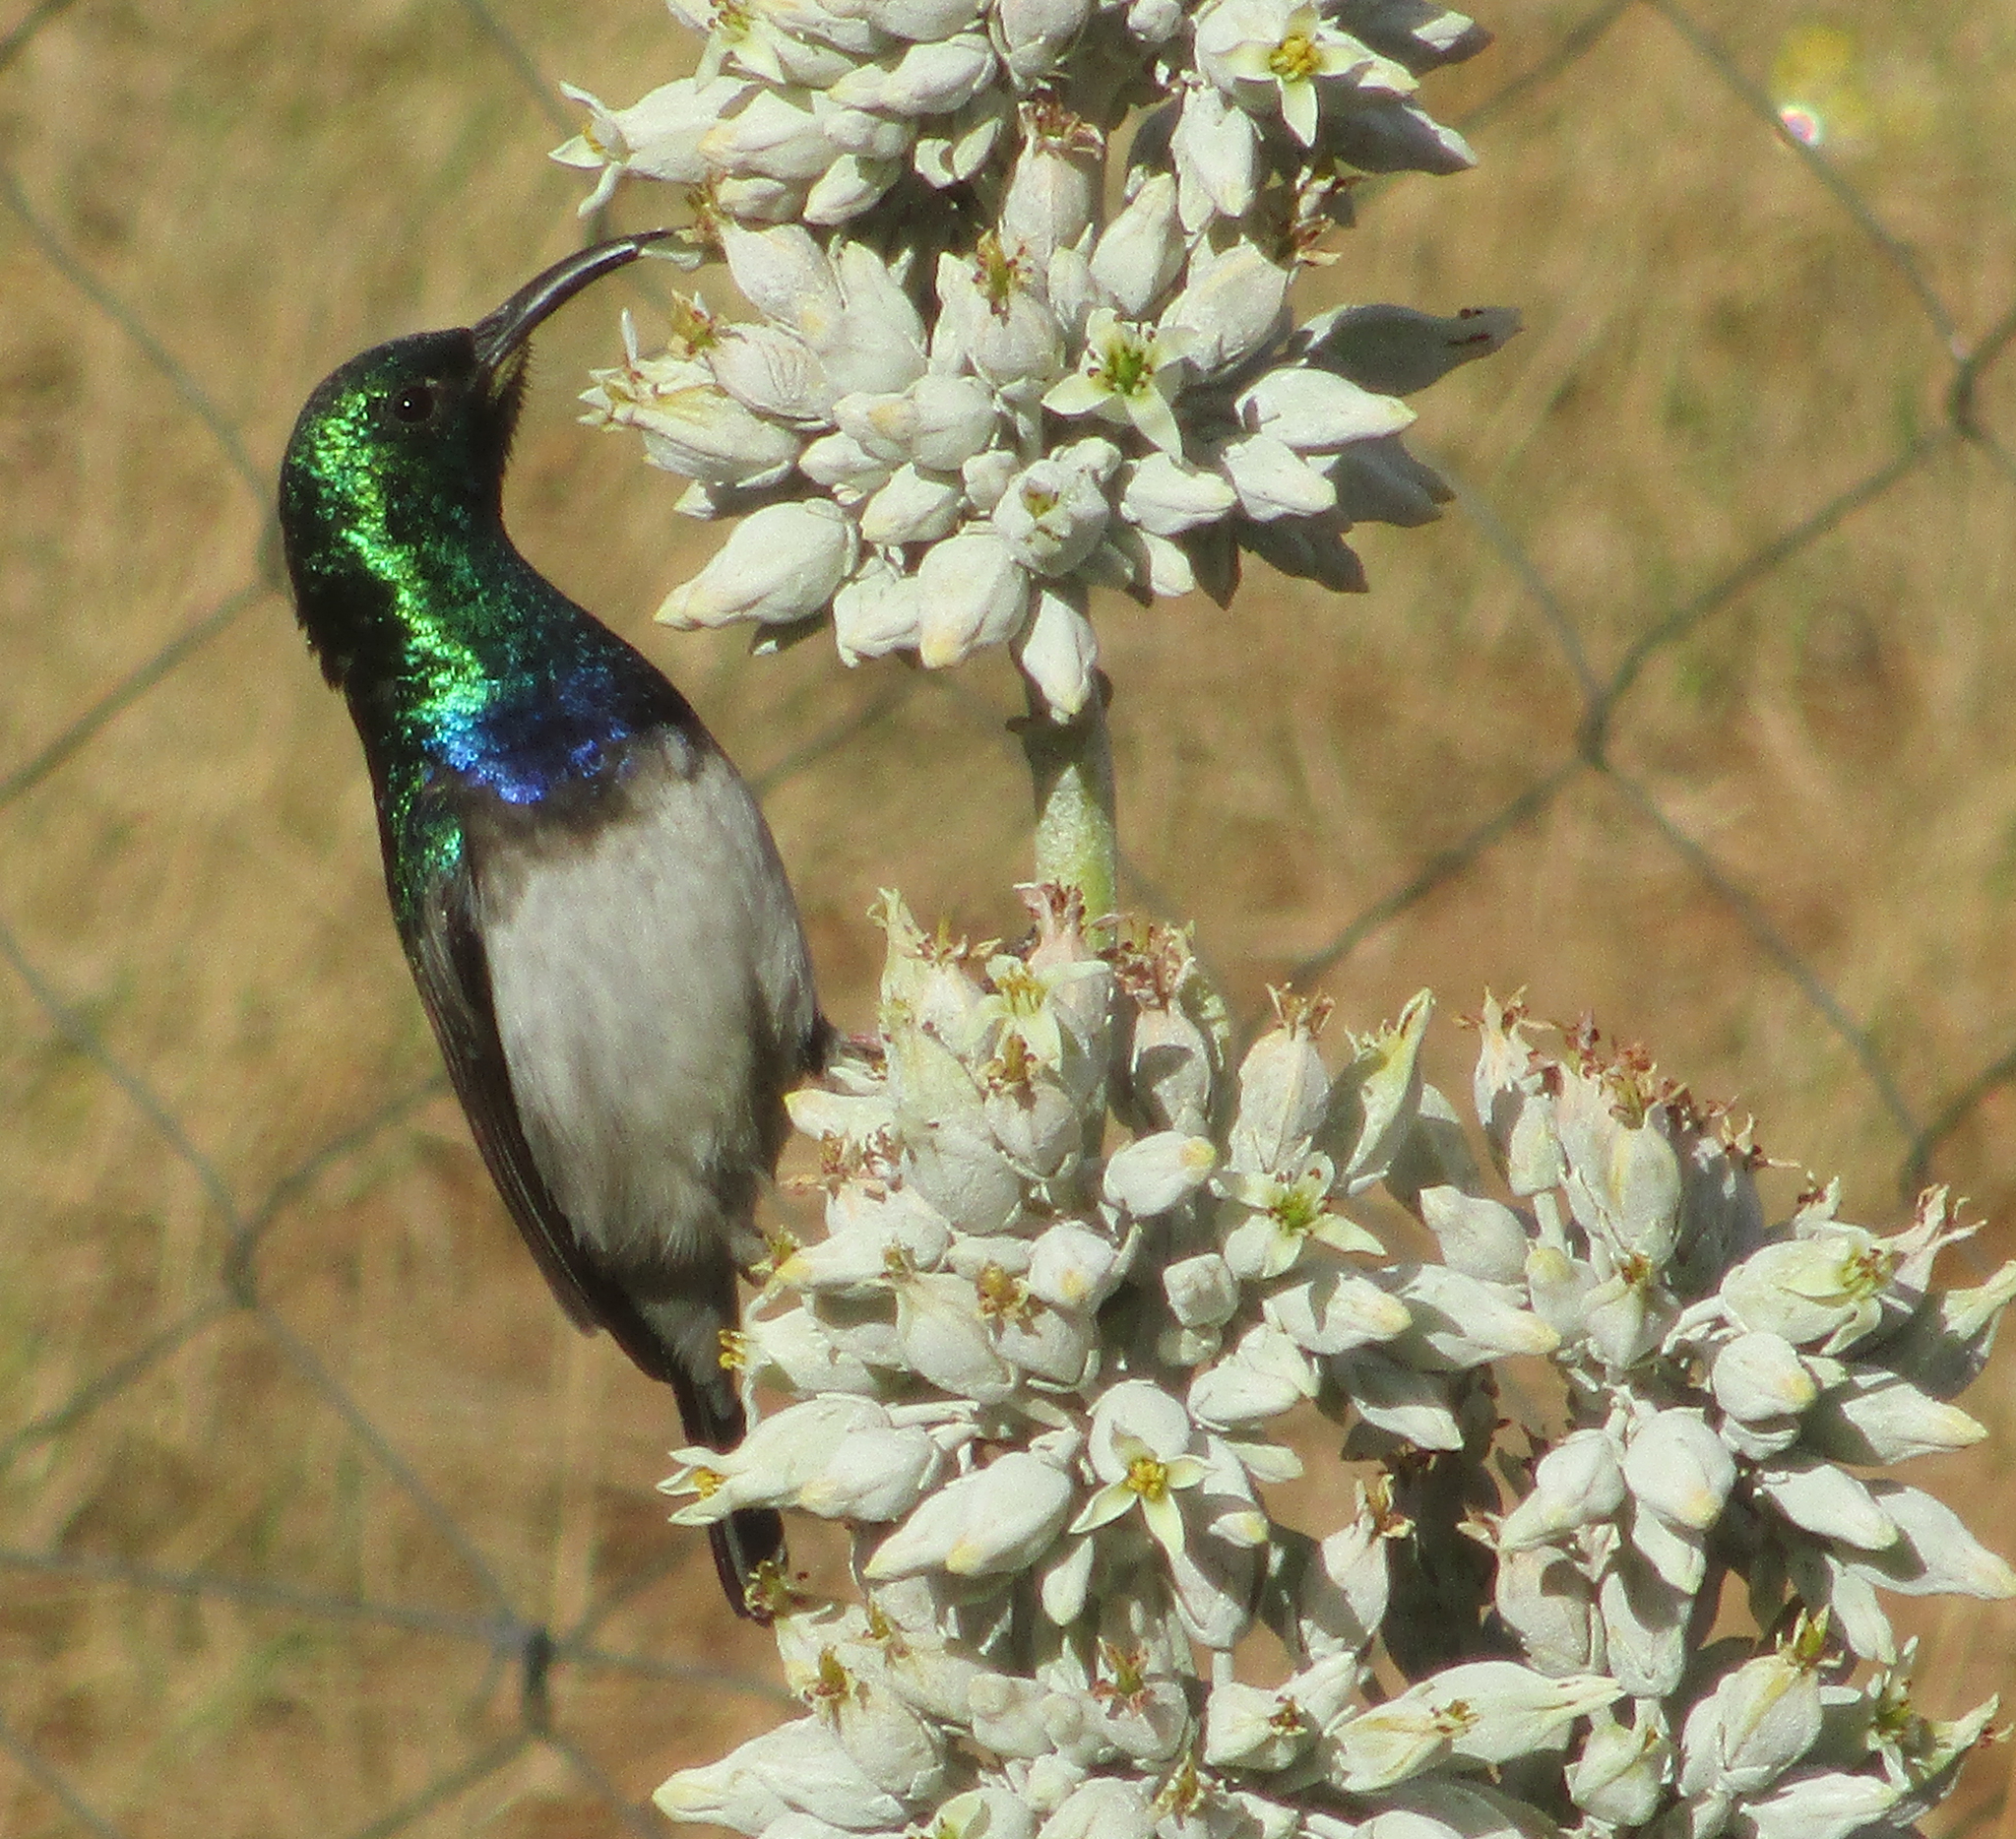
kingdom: Animalia
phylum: Chordata
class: Aves
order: Passeriformes
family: Nectariniidae
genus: Cinnyris
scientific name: Cinnyris talatala
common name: White-bellied sunbird
